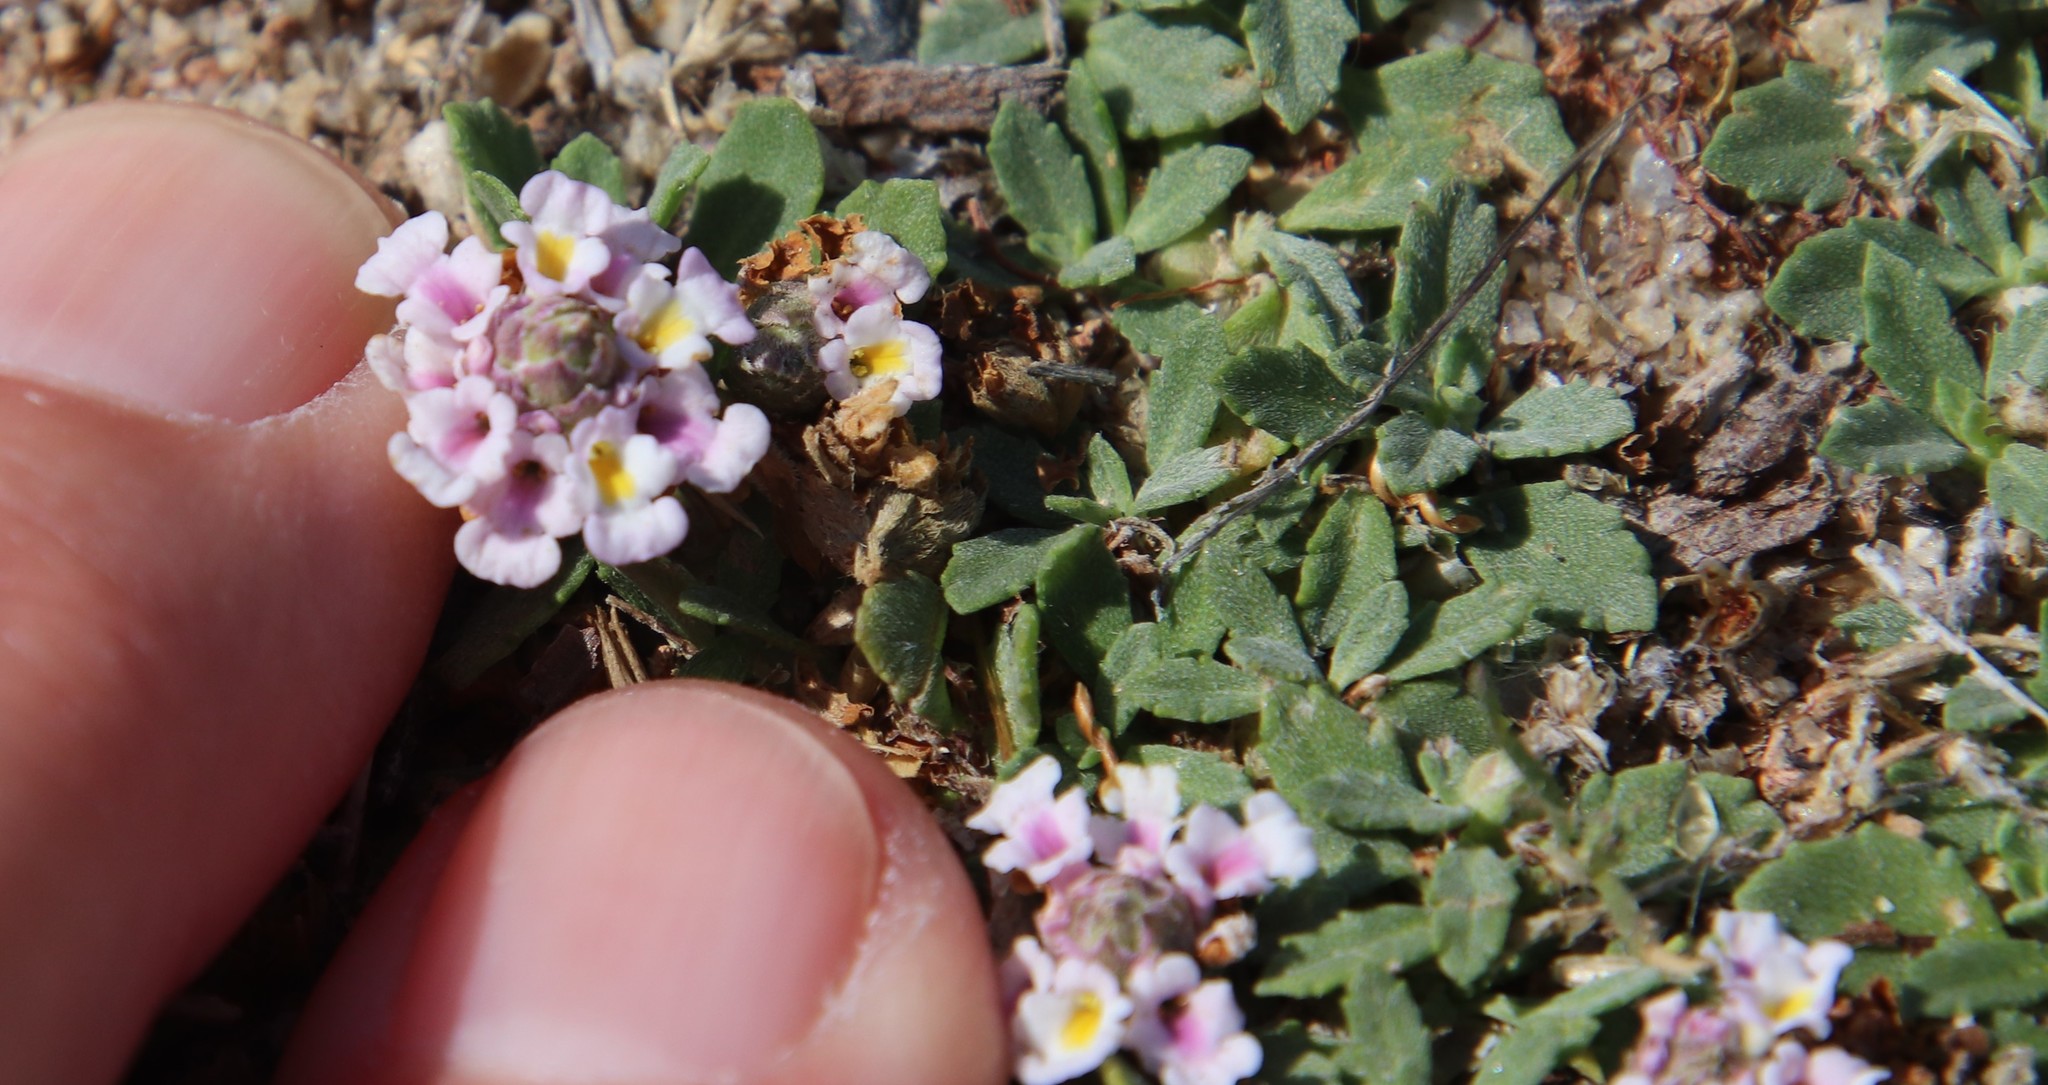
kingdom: Plantae
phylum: Tracheophyta
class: Magnoliopsida
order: Lamiales
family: Verbenaceae
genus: Phyla
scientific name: Phyla nodiflora
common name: Frogfruit
